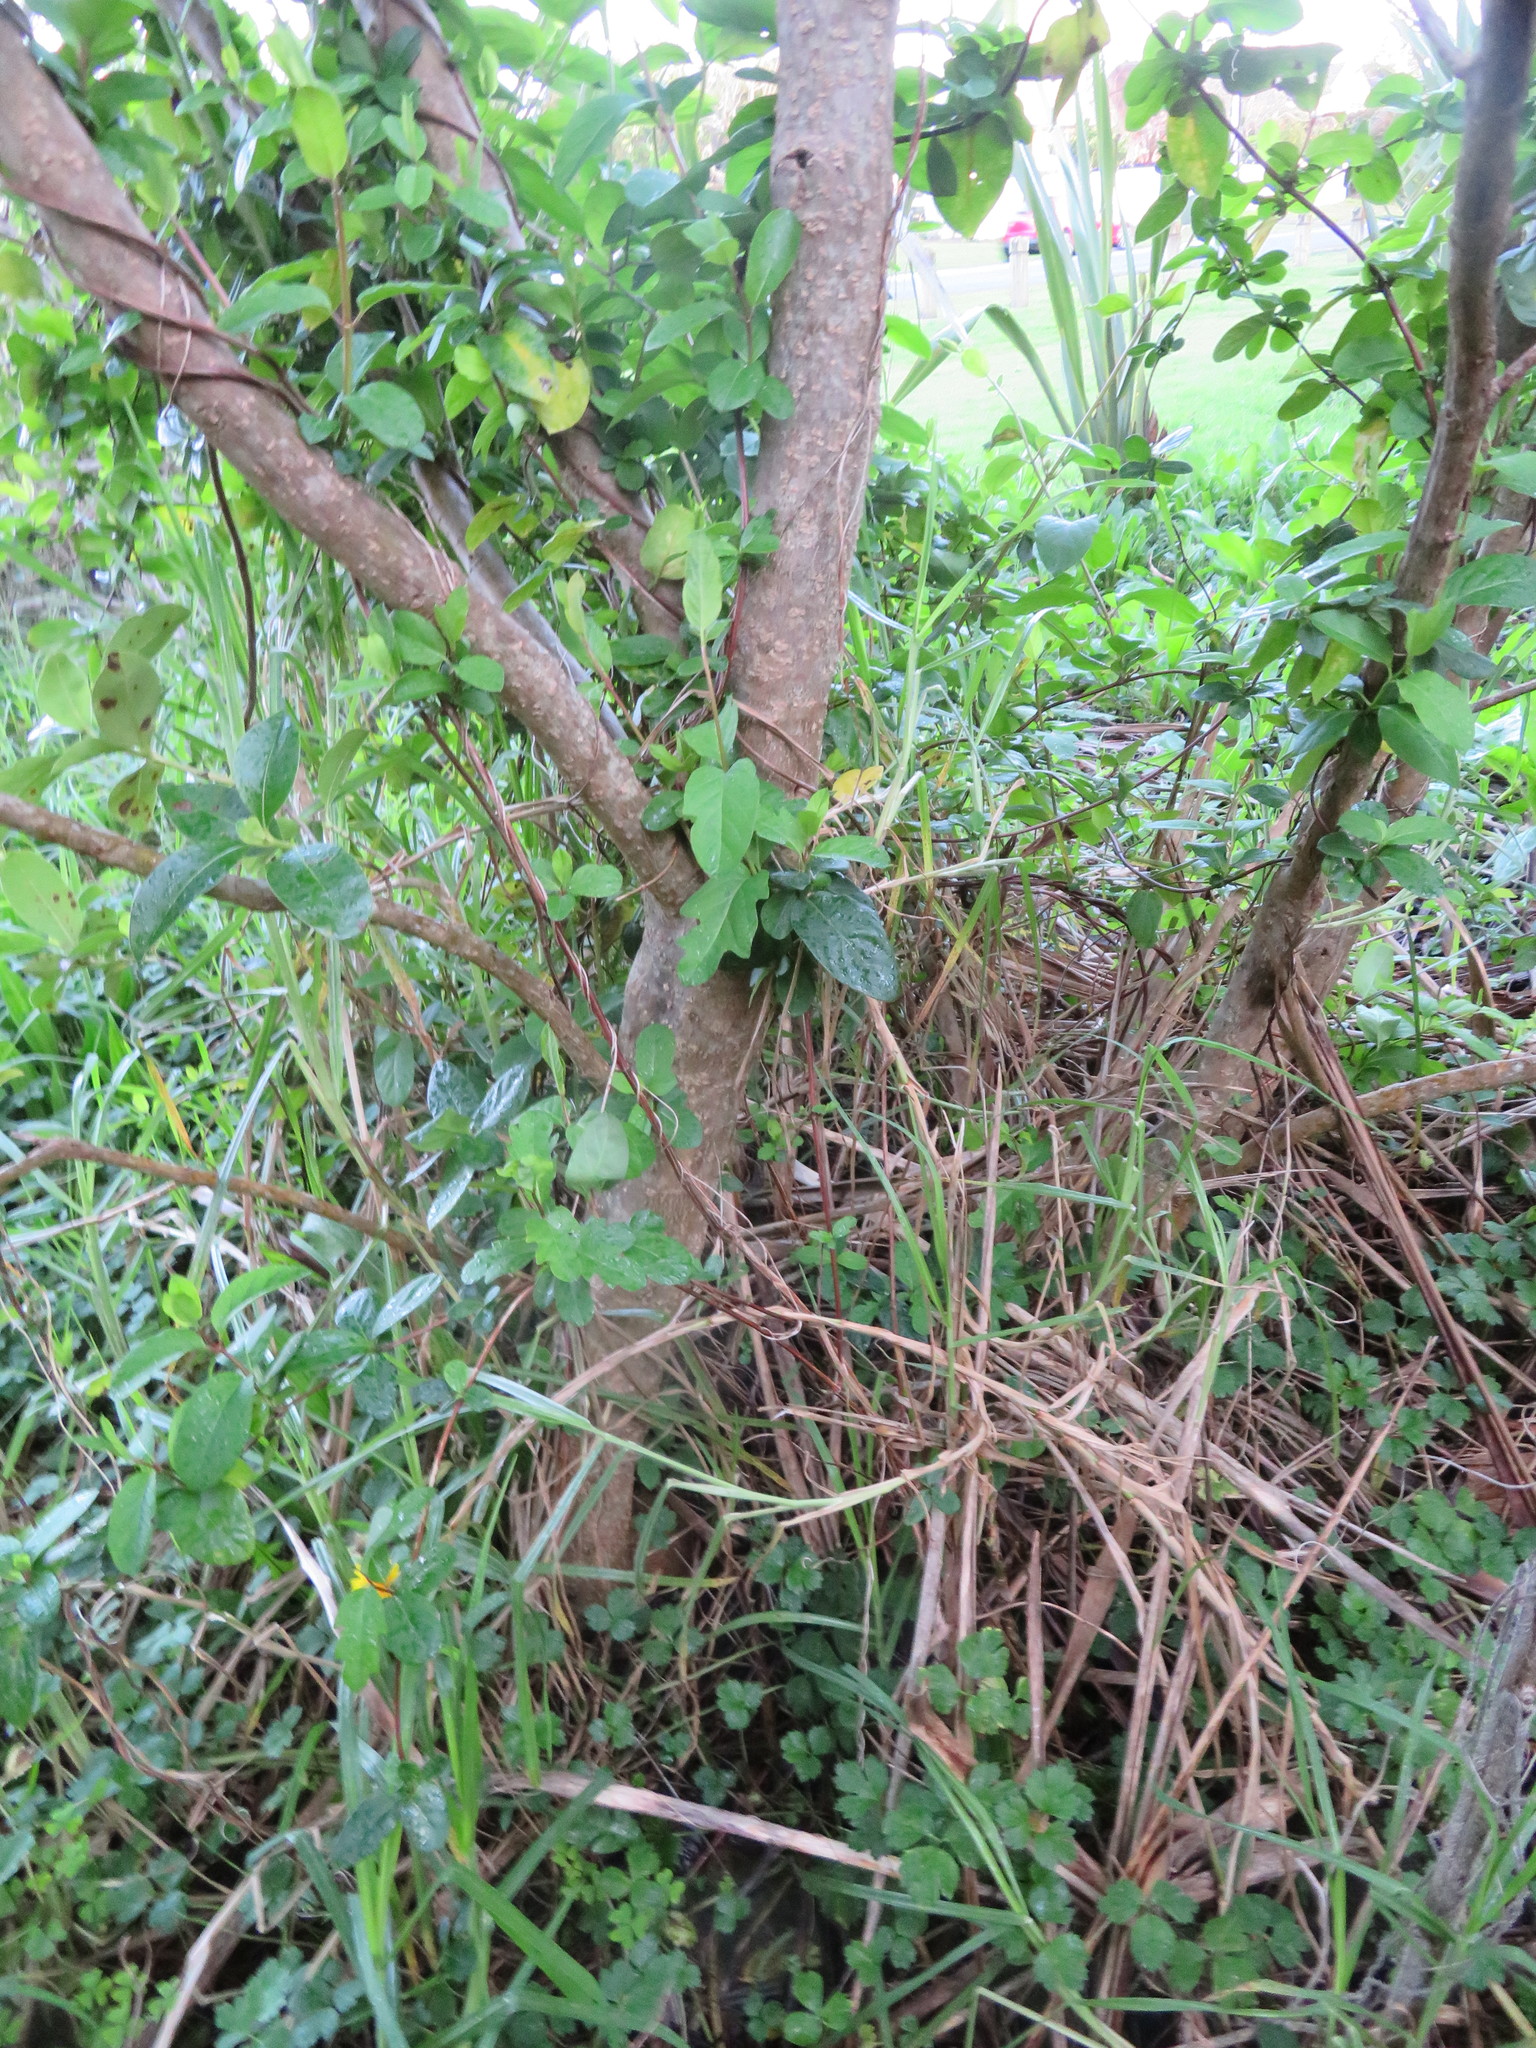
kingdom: Plantae
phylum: Tracheophyta
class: Magnoliopsida
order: Dipsacales
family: Caprifoliaceae
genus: Lonicera
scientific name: Lonicera japonica
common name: Japanese honeysuckle
